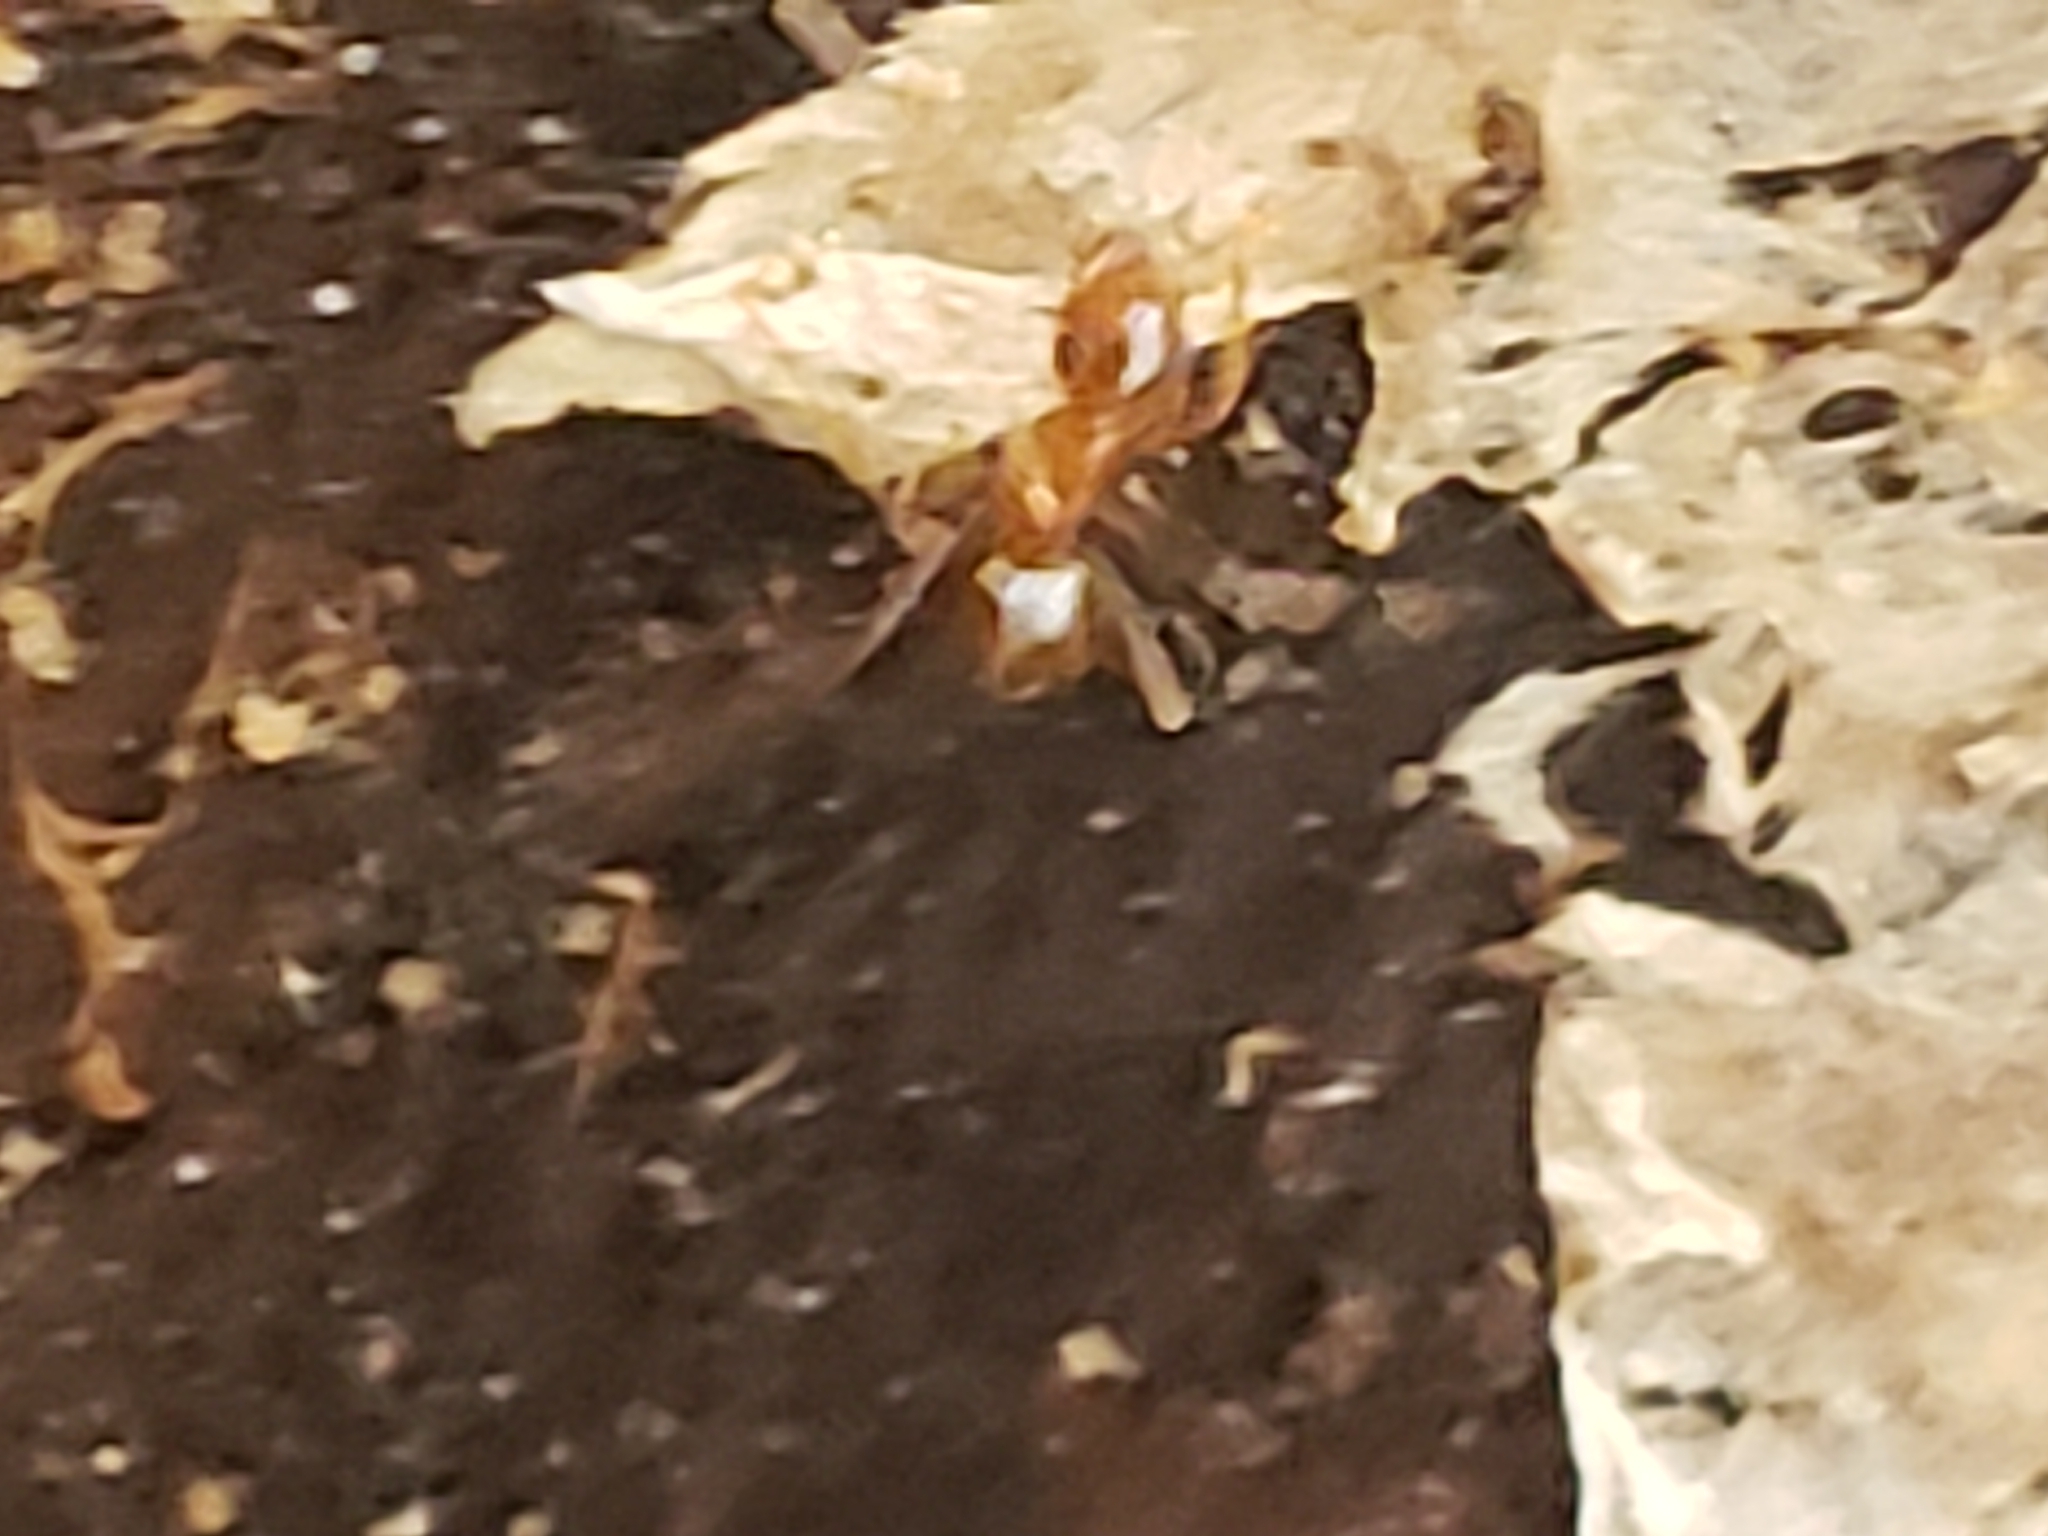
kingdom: Animalia
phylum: Arthropoda
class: Insecta
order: Hymenoptera
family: Formicidae
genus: Prenolepis
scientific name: Prenolepis imparis
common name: Small honey ant
